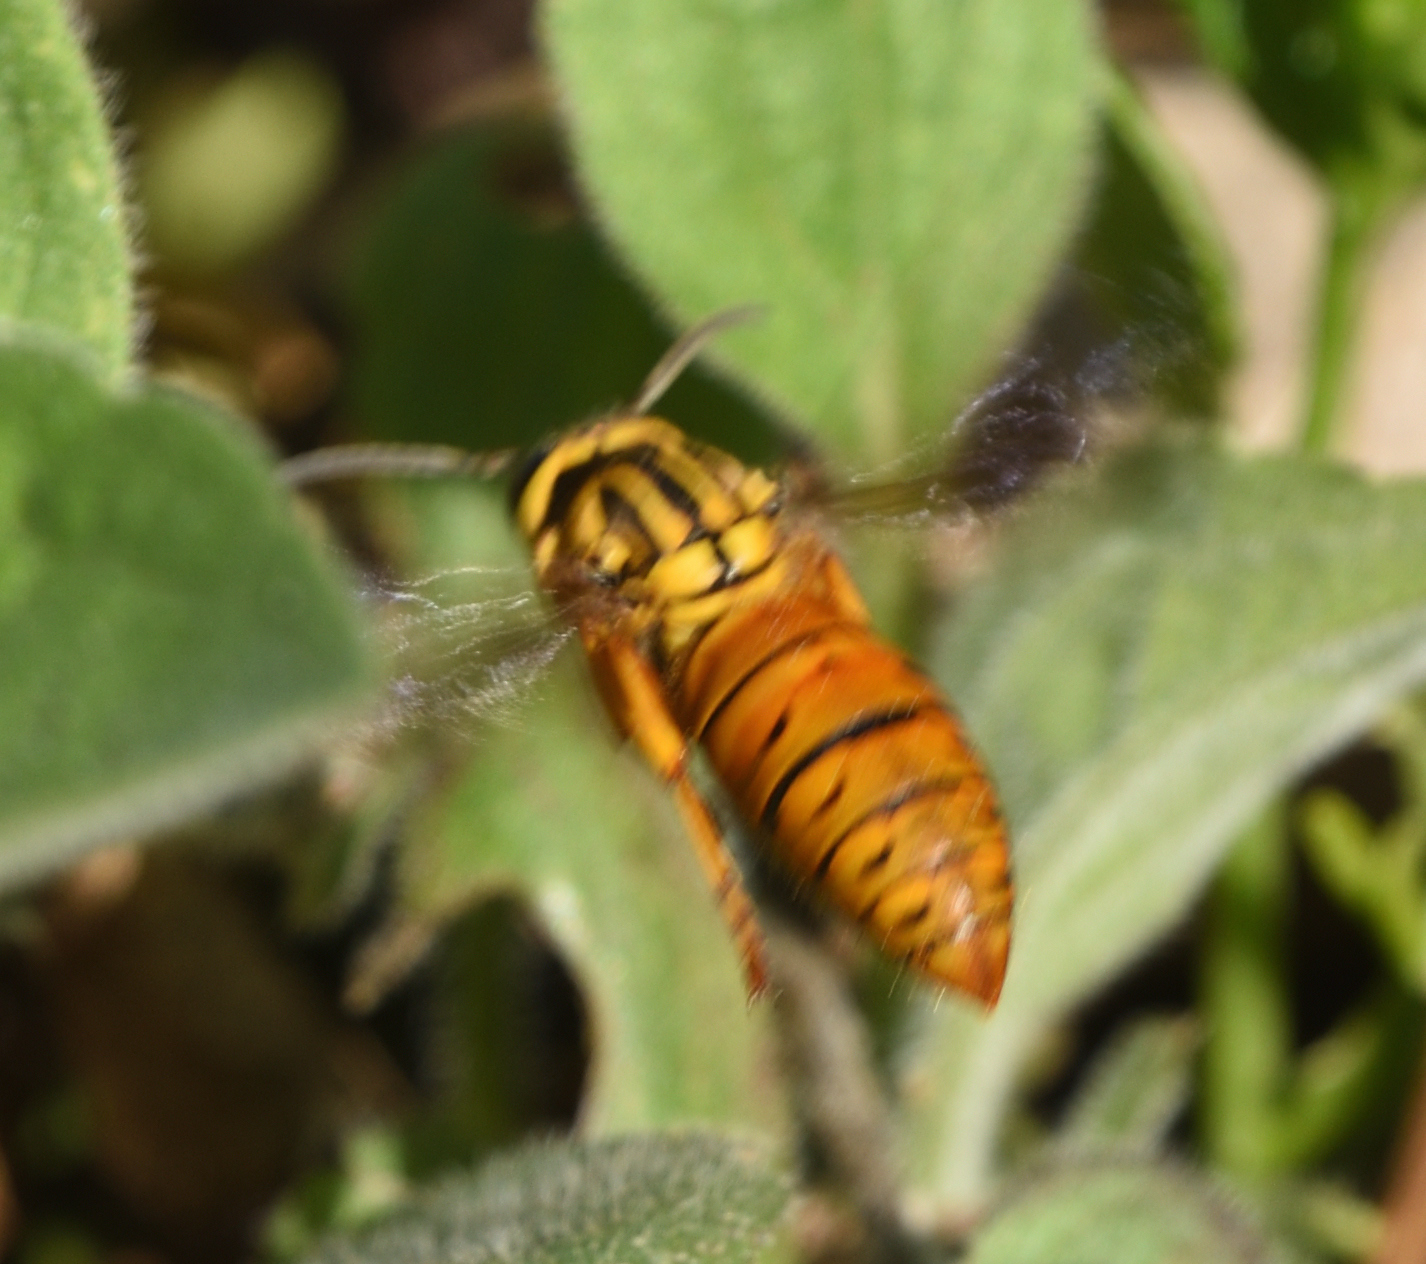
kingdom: Animalia
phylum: Arthropoda
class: Insecta
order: Hymenoptera
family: Vespidae
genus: Vespula
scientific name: Vespula squamosa
